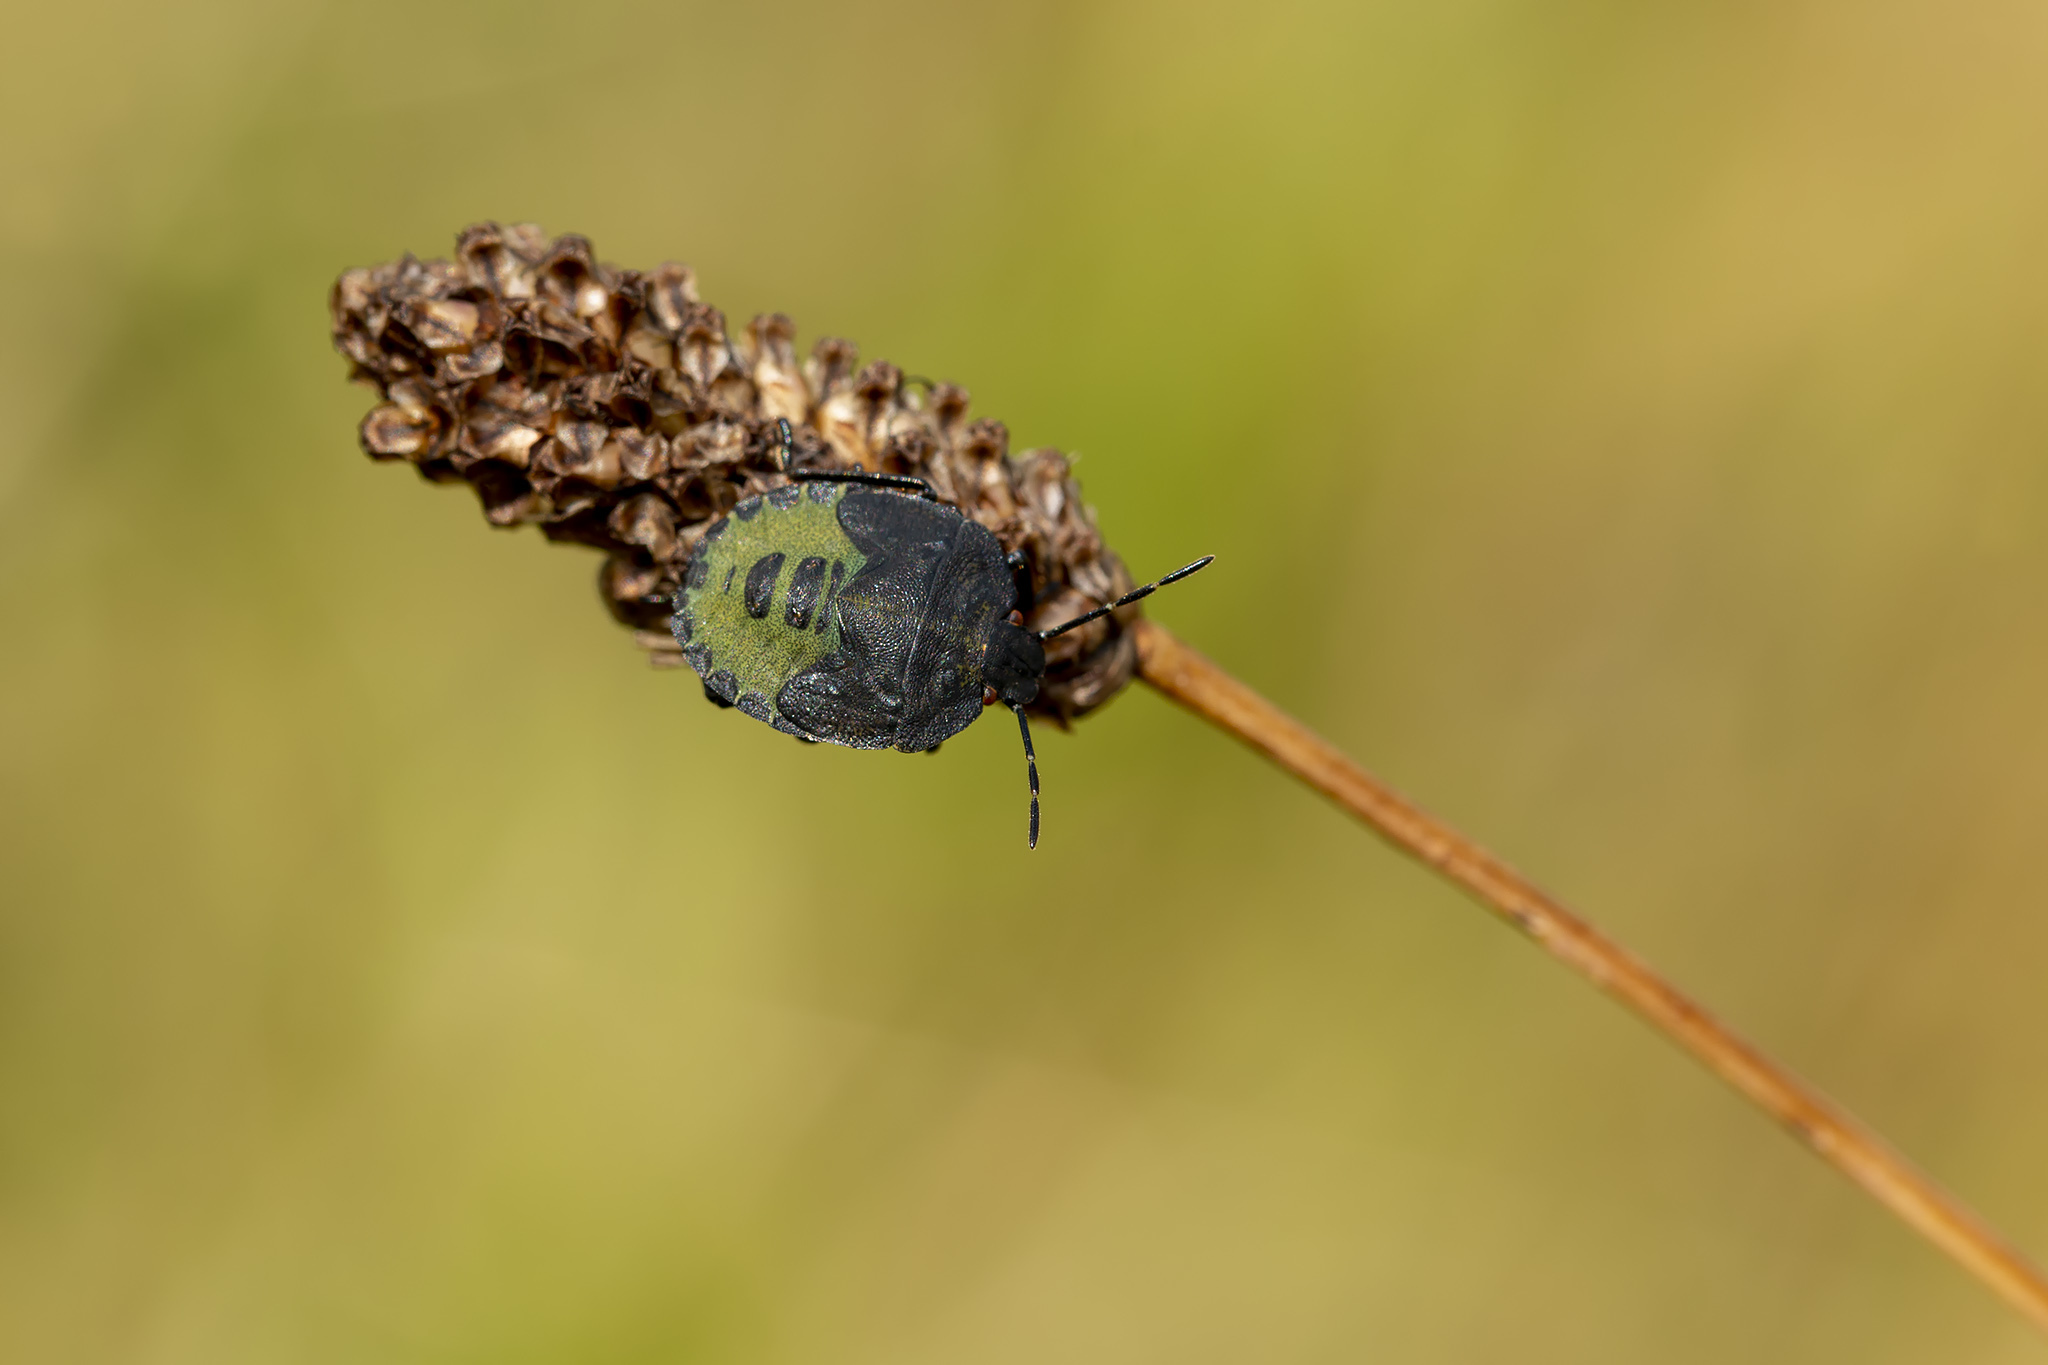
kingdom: Animalia
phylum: Arthropoda
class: Insecta
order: Hemiptera
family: Pentatomidae
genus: Palomena
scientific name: Palomena prasina
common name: Green shieldbug
